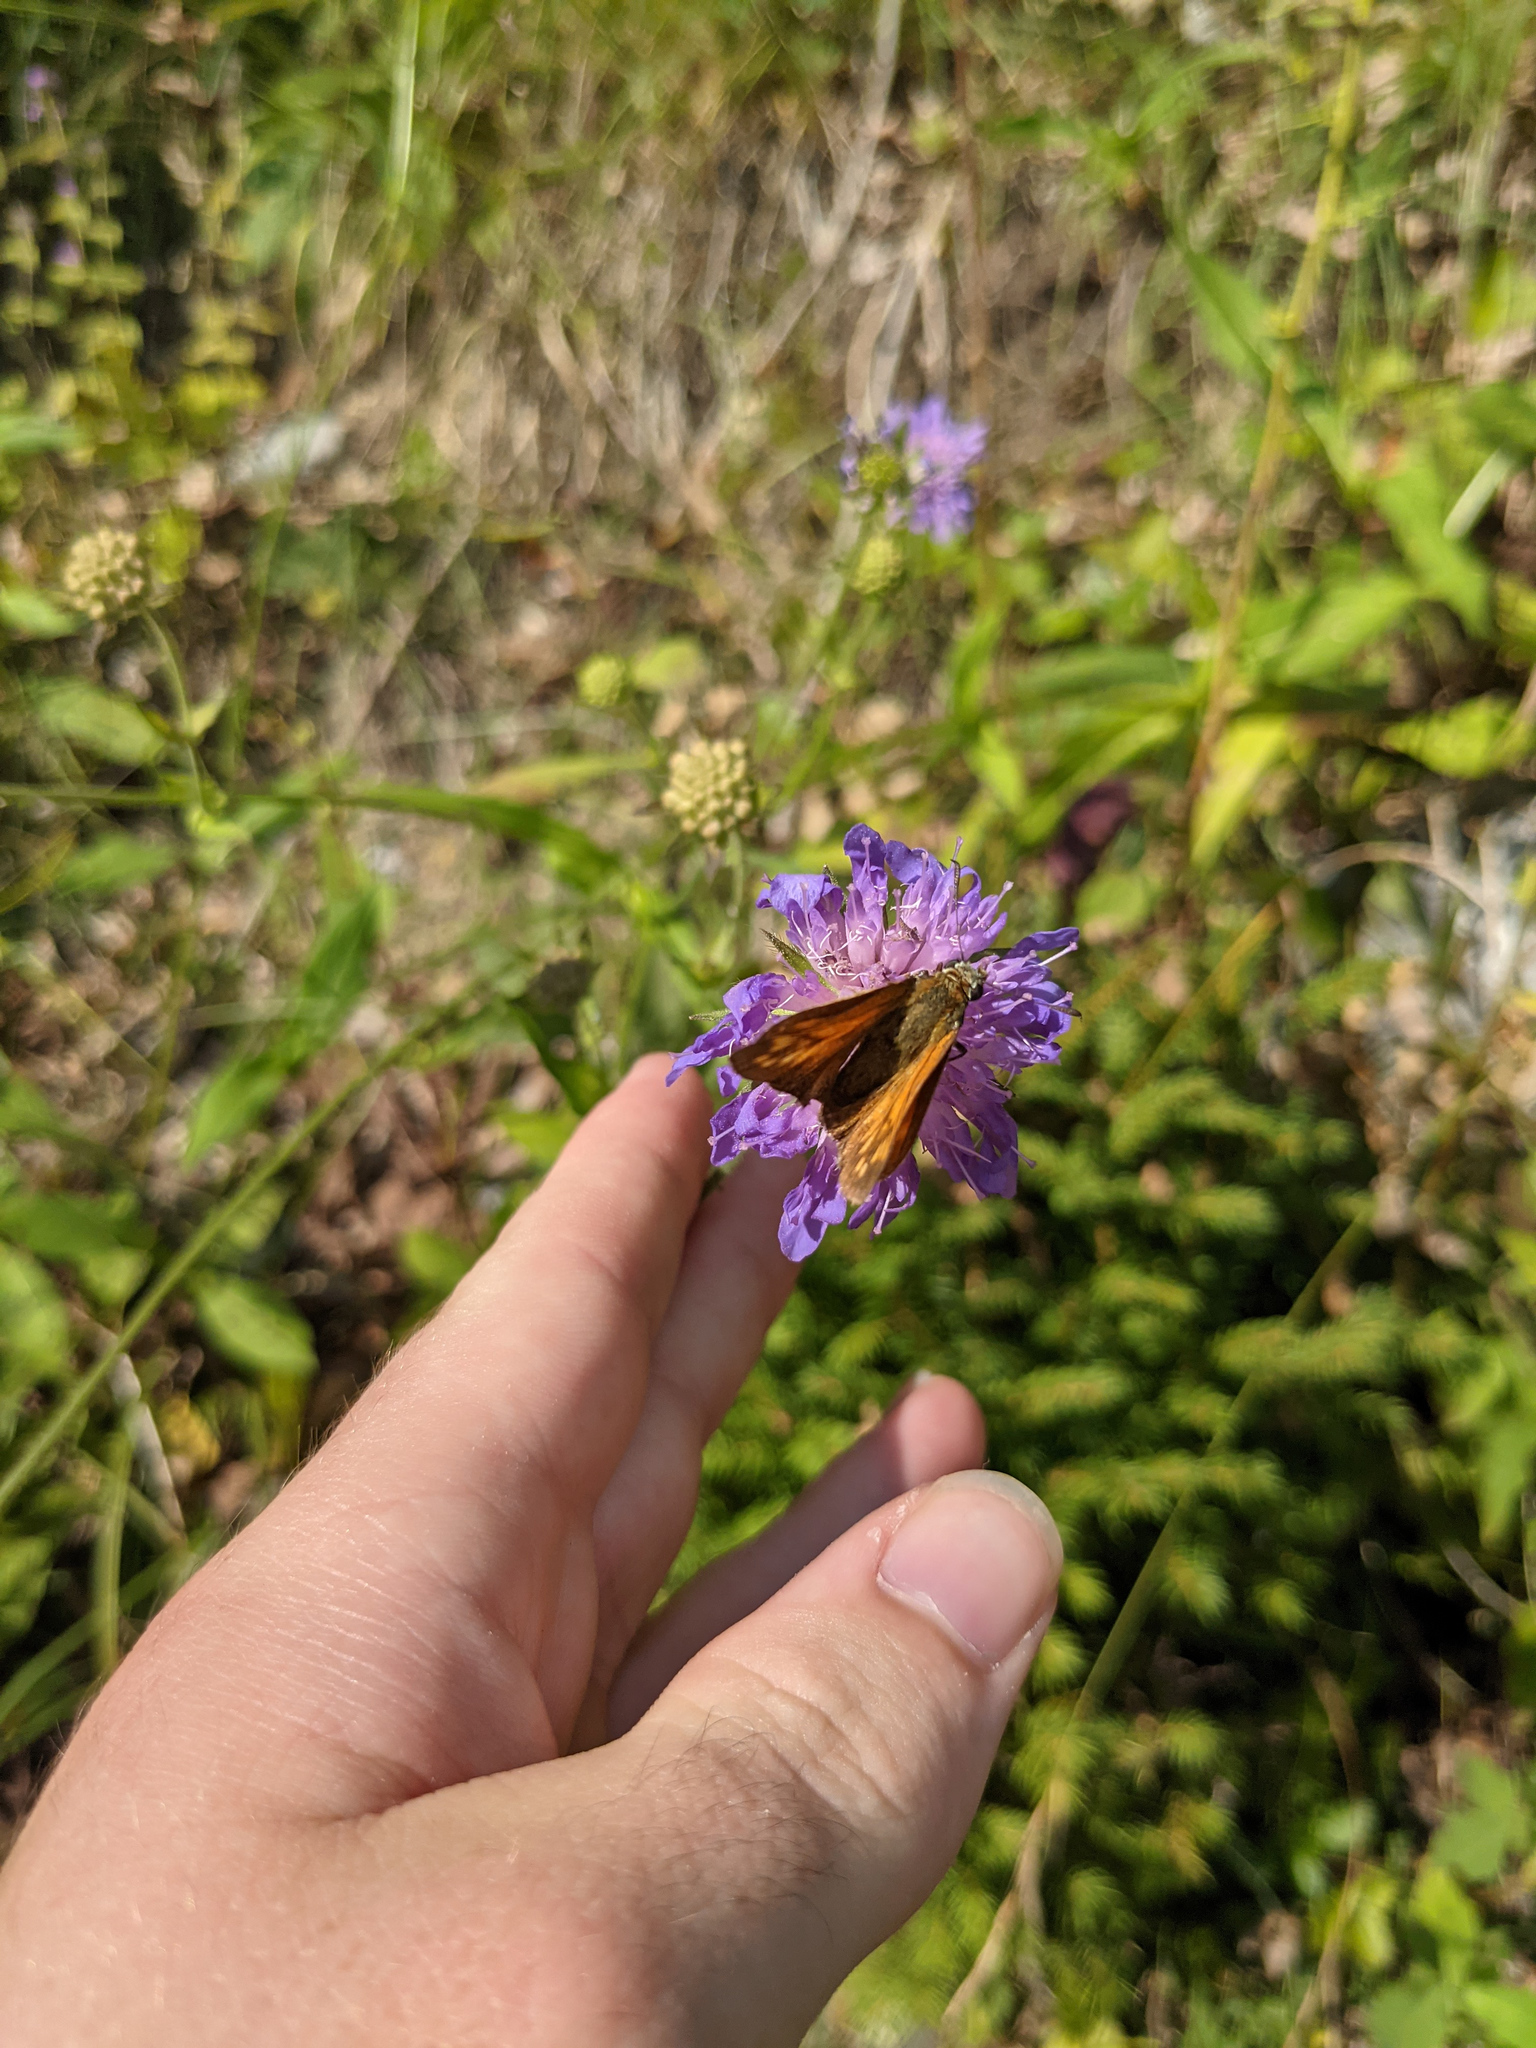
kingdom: Animalia
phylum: Arthropoda
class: Insecta
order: Lepidoptera
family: Hesperiidae
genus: Ochlodes
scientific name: Ochlodes venata
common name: Large skipper
